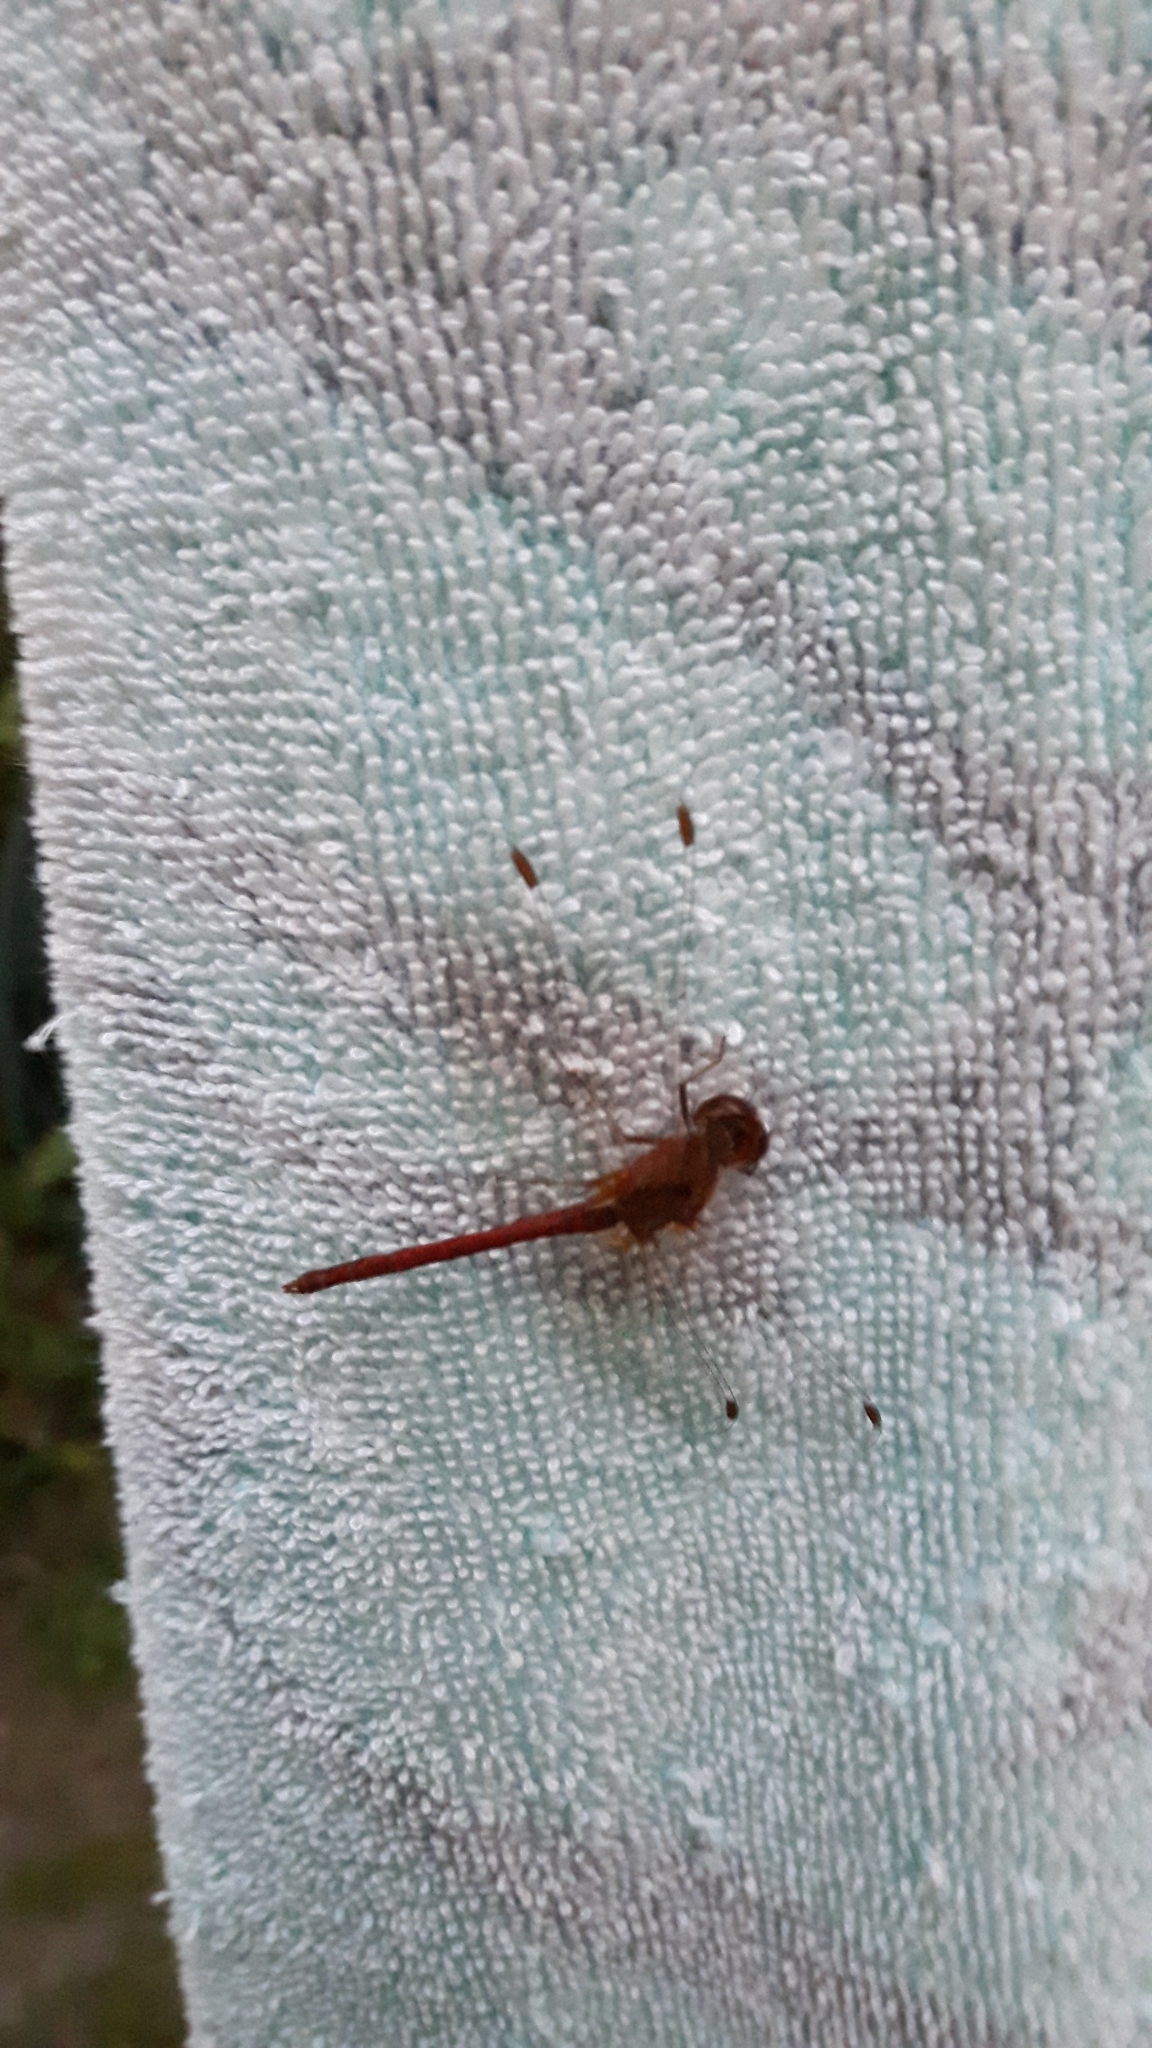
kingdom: Animalia
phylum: Arthropoda
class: Insecta
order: Odonata
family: Libellulidae
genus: Sympetrum
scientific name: Sympetrum vicinum
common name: Autumn meadowhawk
